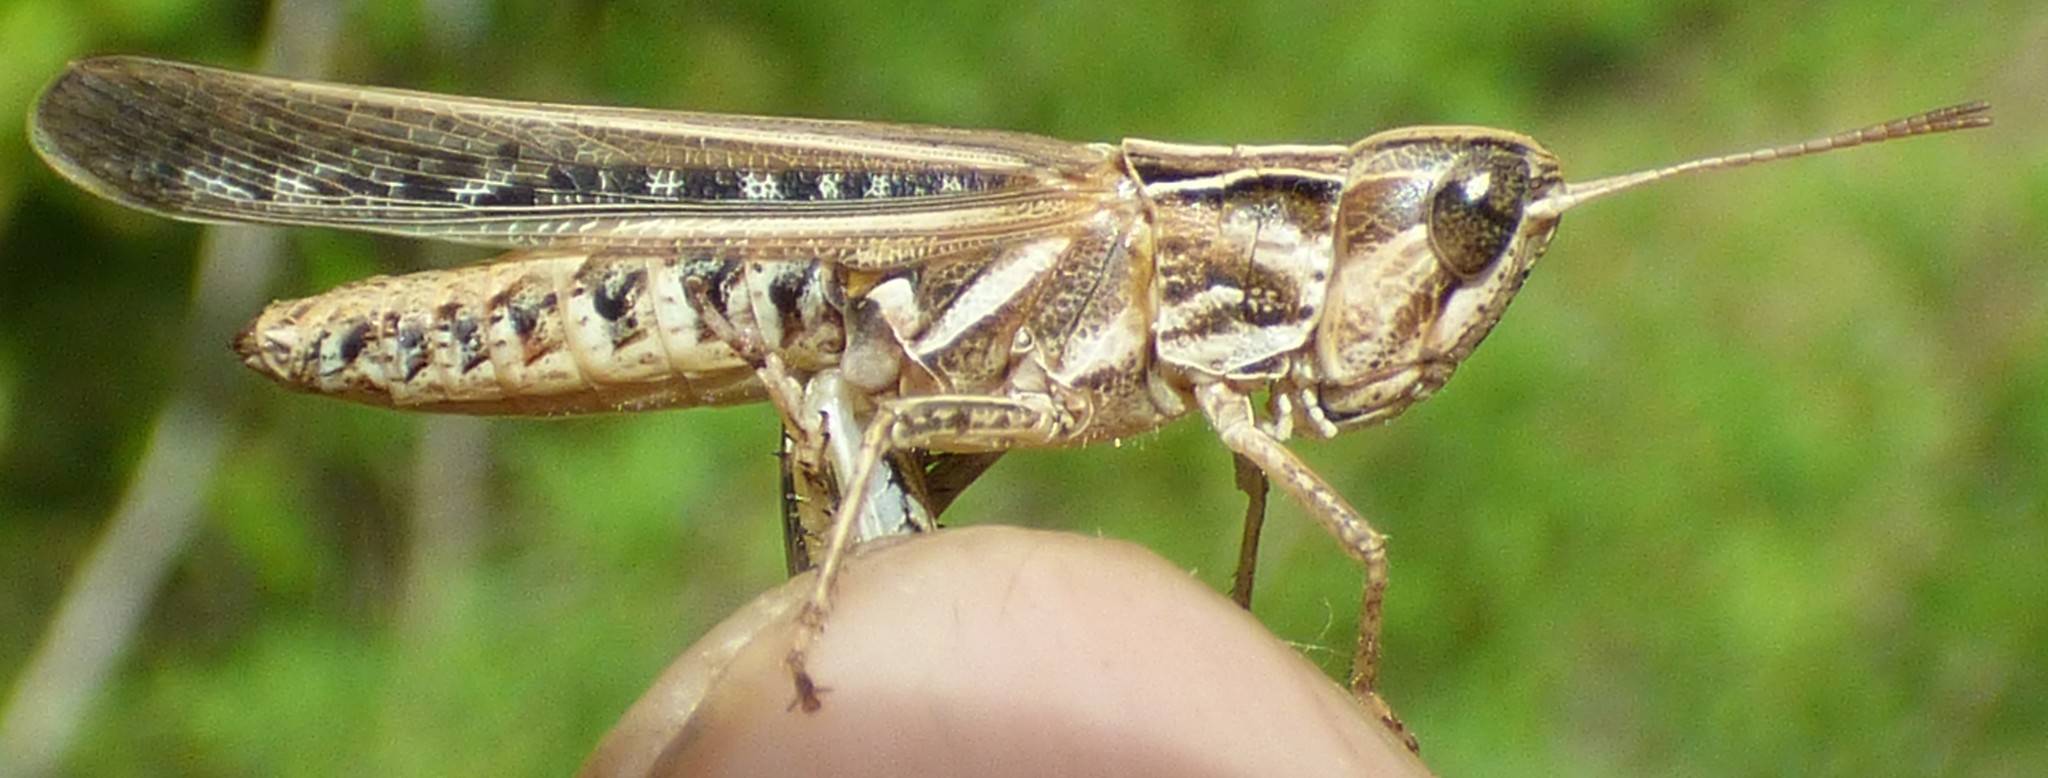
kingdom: Animalia
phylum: Arthropoda
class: Insecta
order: Orthoptera
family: Acrididae
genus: Orphulella
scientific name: Orphulella pelidna
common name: Spotted-wing grasshopper
